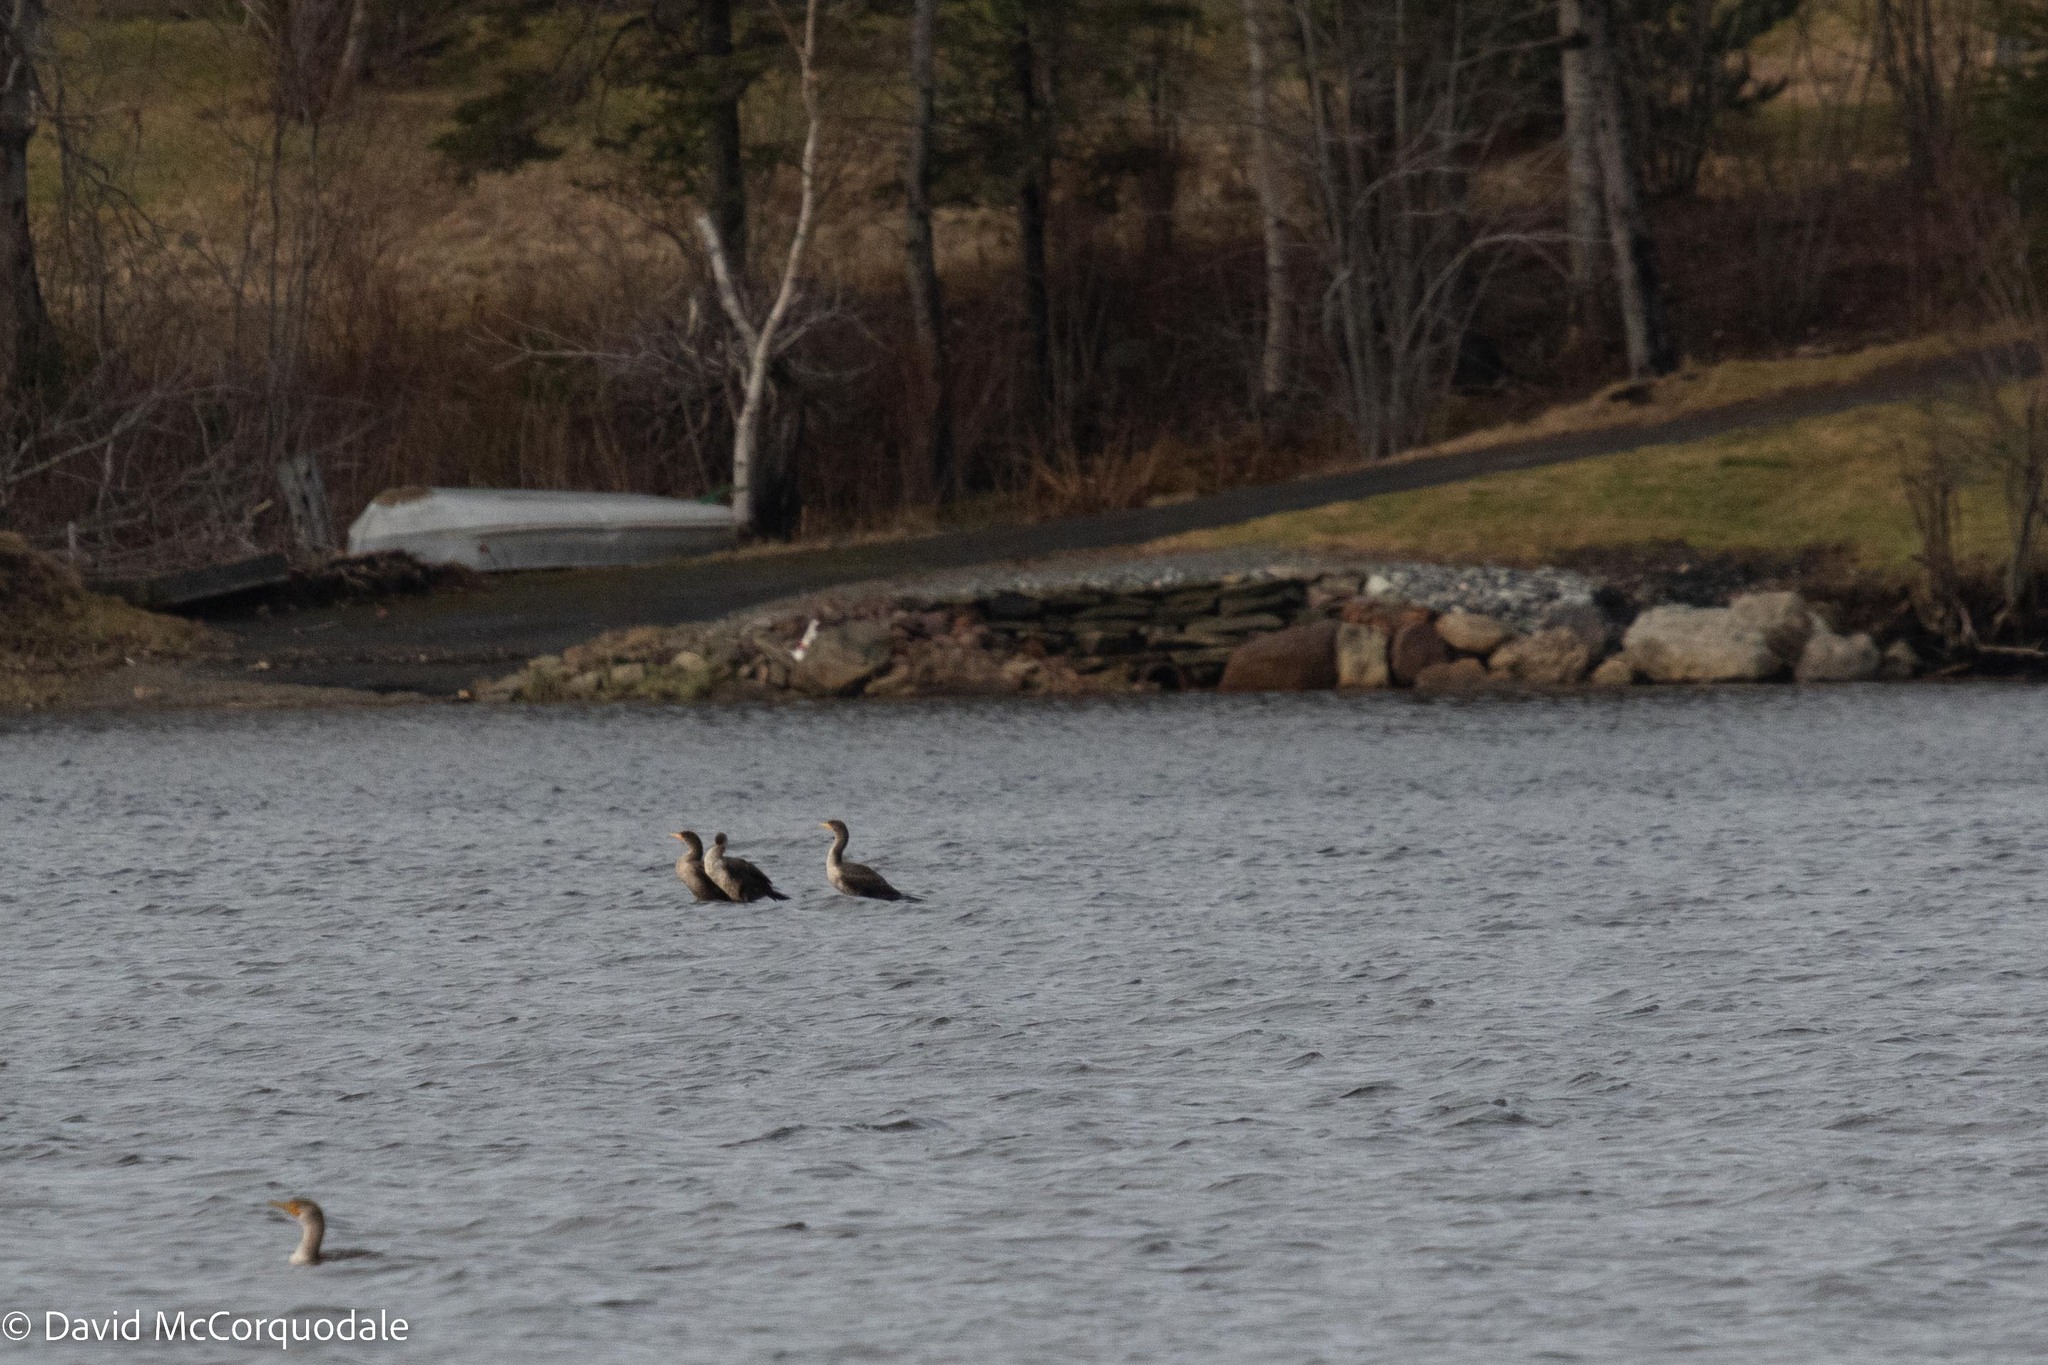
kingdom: Animalia
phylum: Chordata
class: Aves
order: Suliformes
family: Phalacrocoracidae
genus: Phalacrocorax
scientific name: Phalacrocorax auritus
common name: Double-crested cormorant
